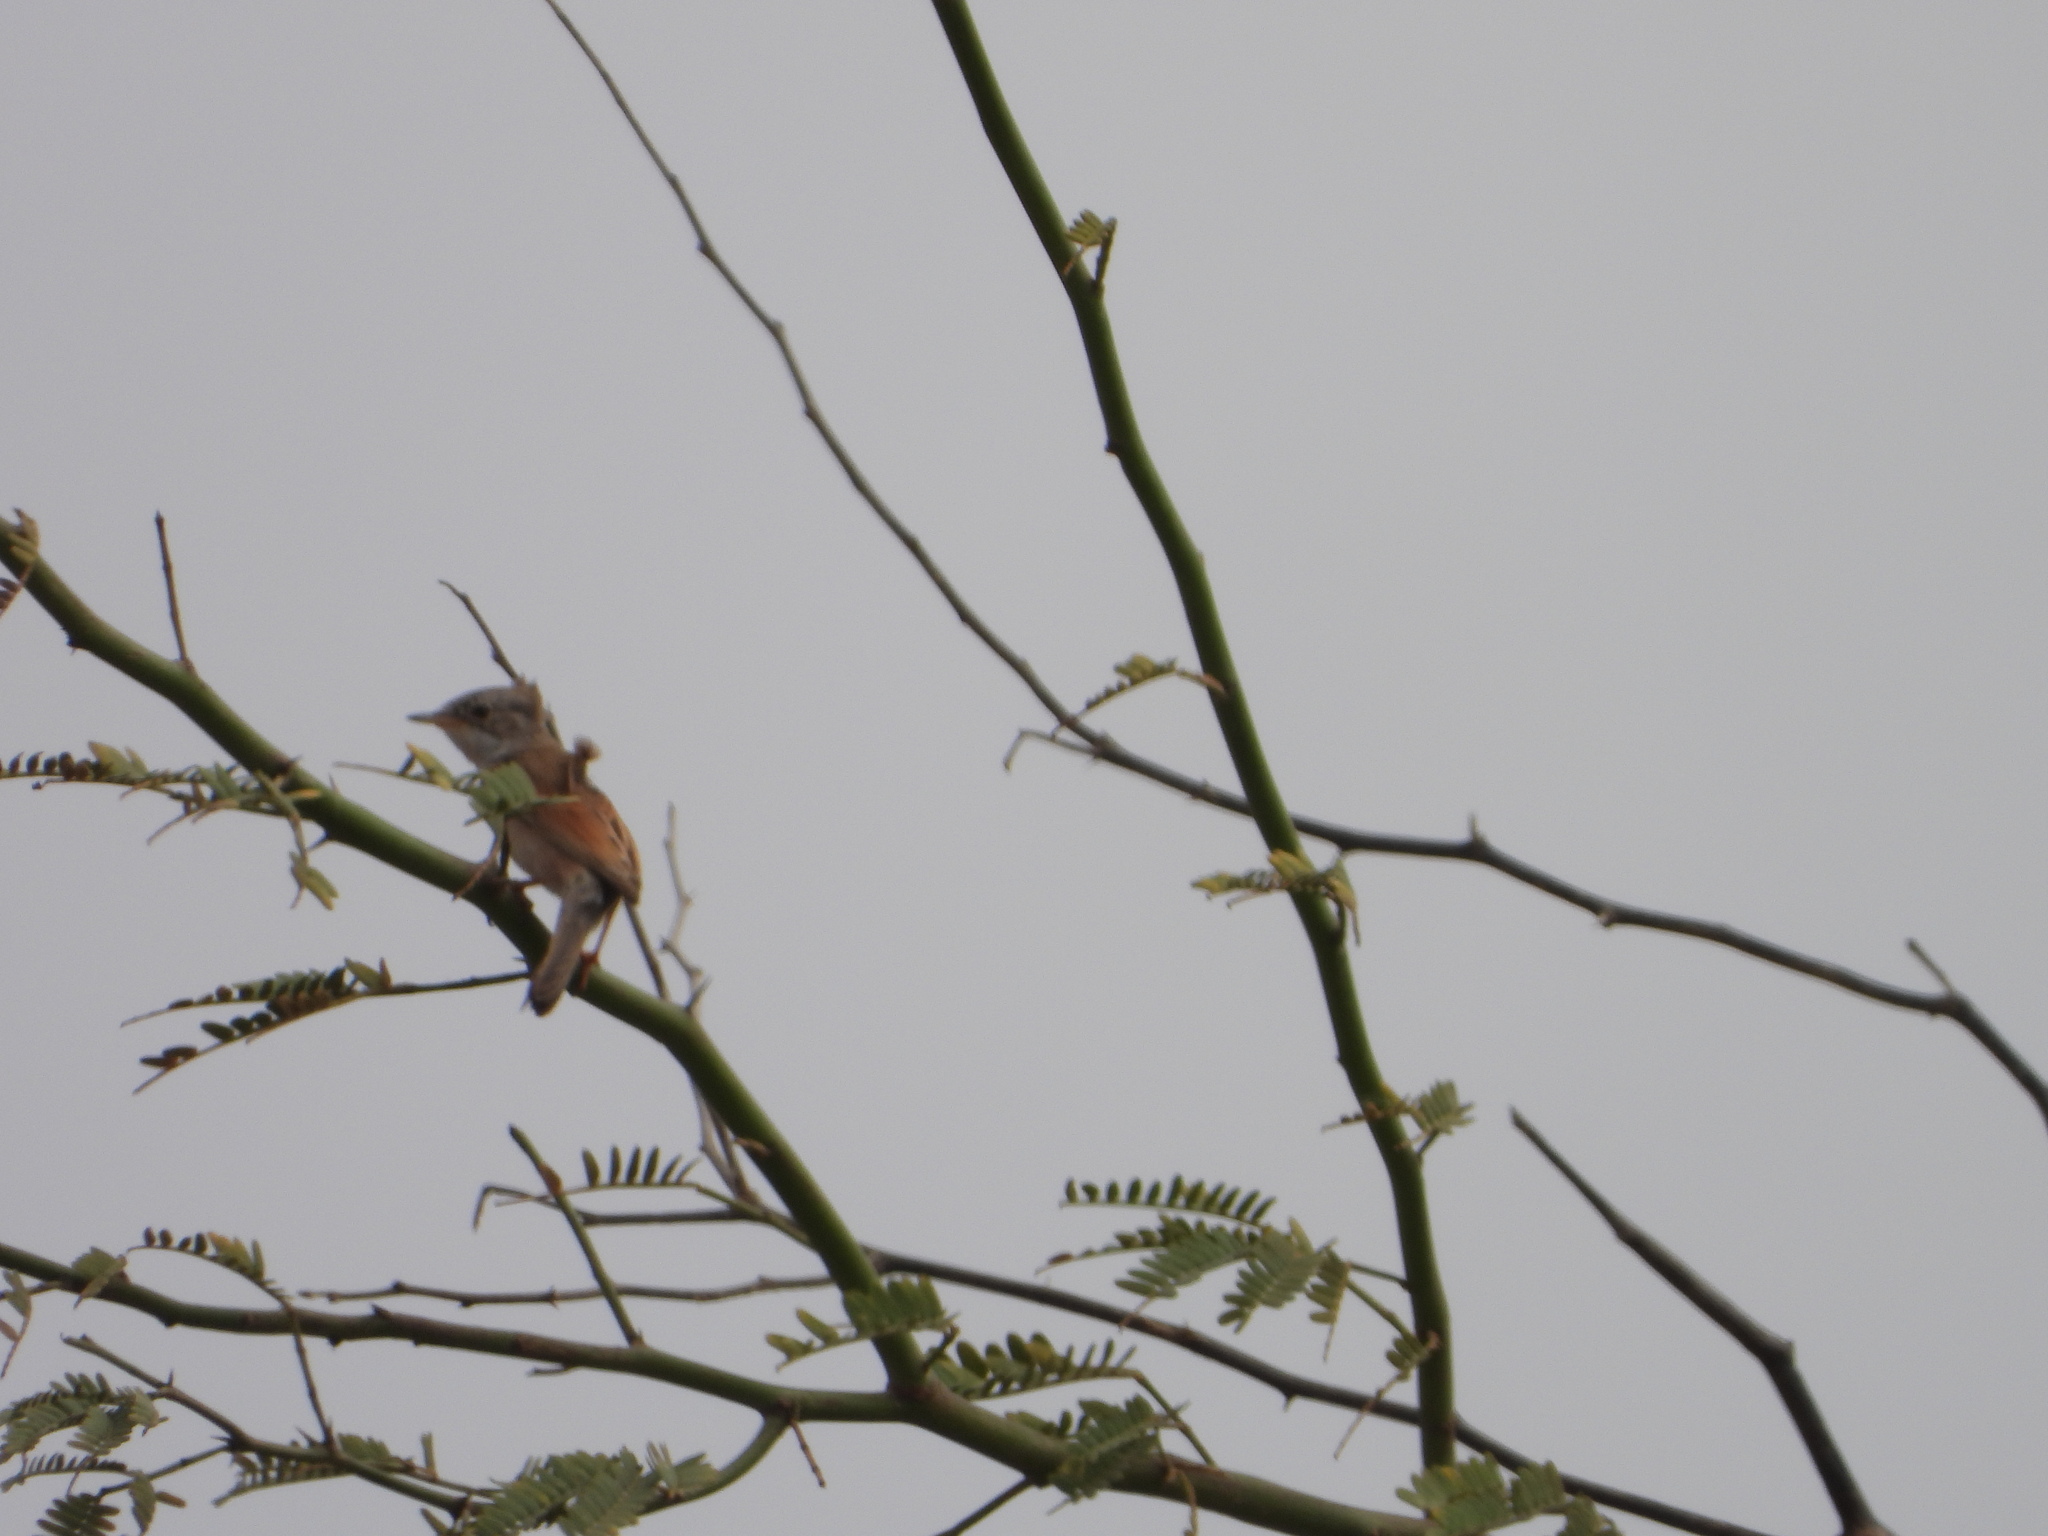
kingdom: Animalia
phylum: Chordata
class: Aves
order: Passeriformes
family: Sylviidae
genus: Sylvia
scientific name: Sylvia conspicillata
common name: Spectacled warbler
